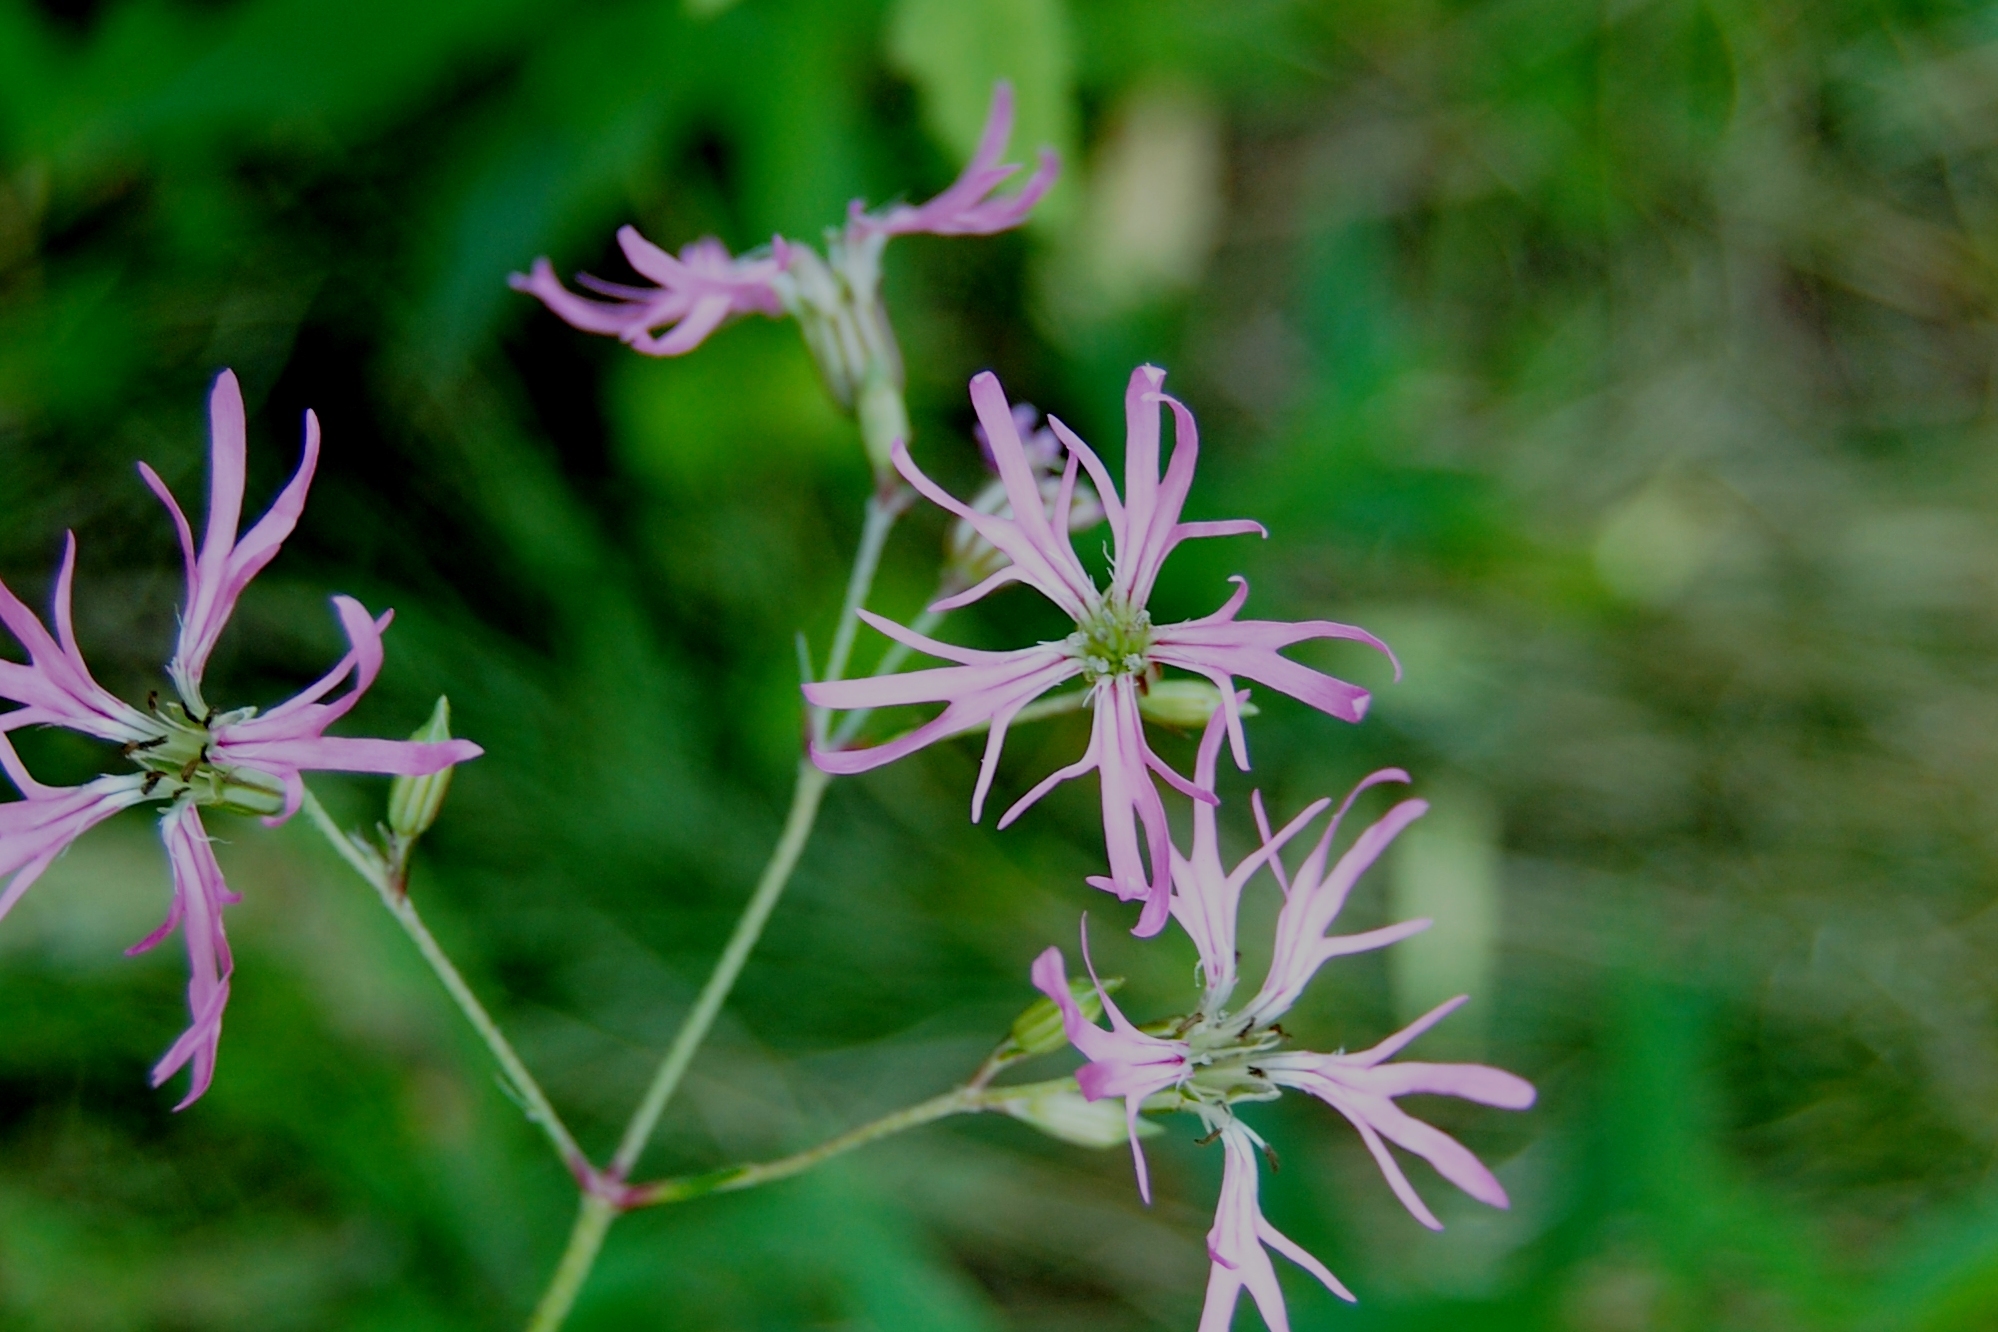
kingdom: Plantae
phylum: Tracheophyta
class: Magnoliopsida
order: Caryophyllales
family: Caryophyllaceae
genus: Silene
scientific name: Silene flos-cuculi
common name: Ragged-robin
